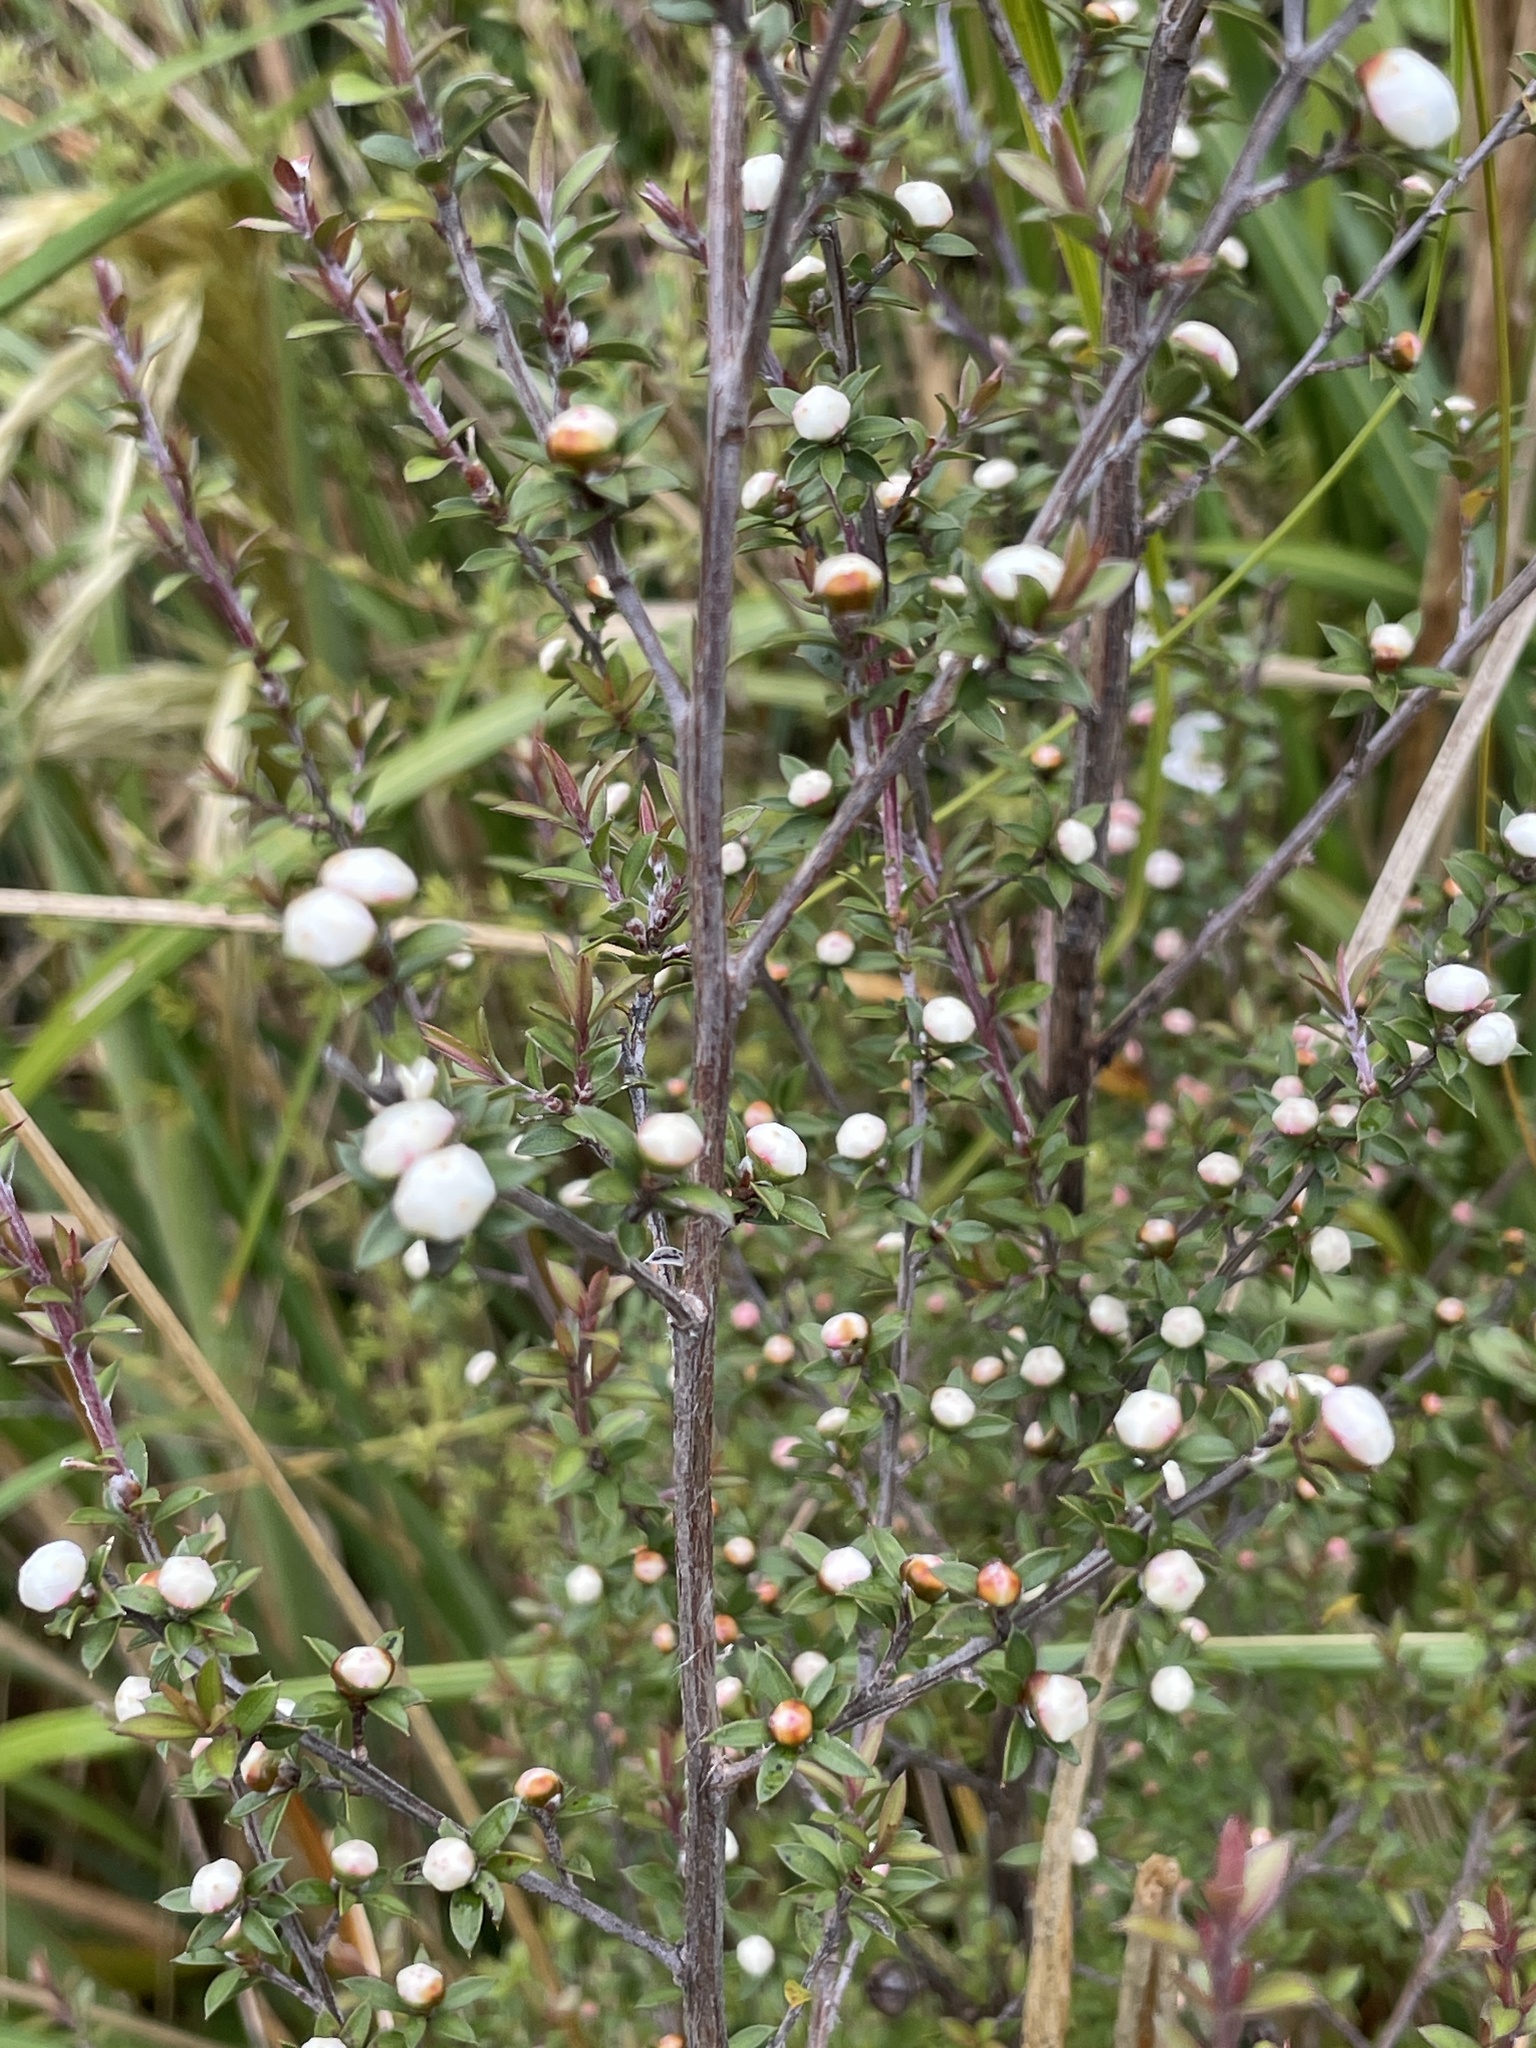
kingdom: Plantae
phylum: Tracheophyta
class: Magnoliopsida
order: Myrtales
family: Myrtaceae
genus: Leptospermum
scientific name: Leptospermum scoparium
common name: Broom tea-tree
